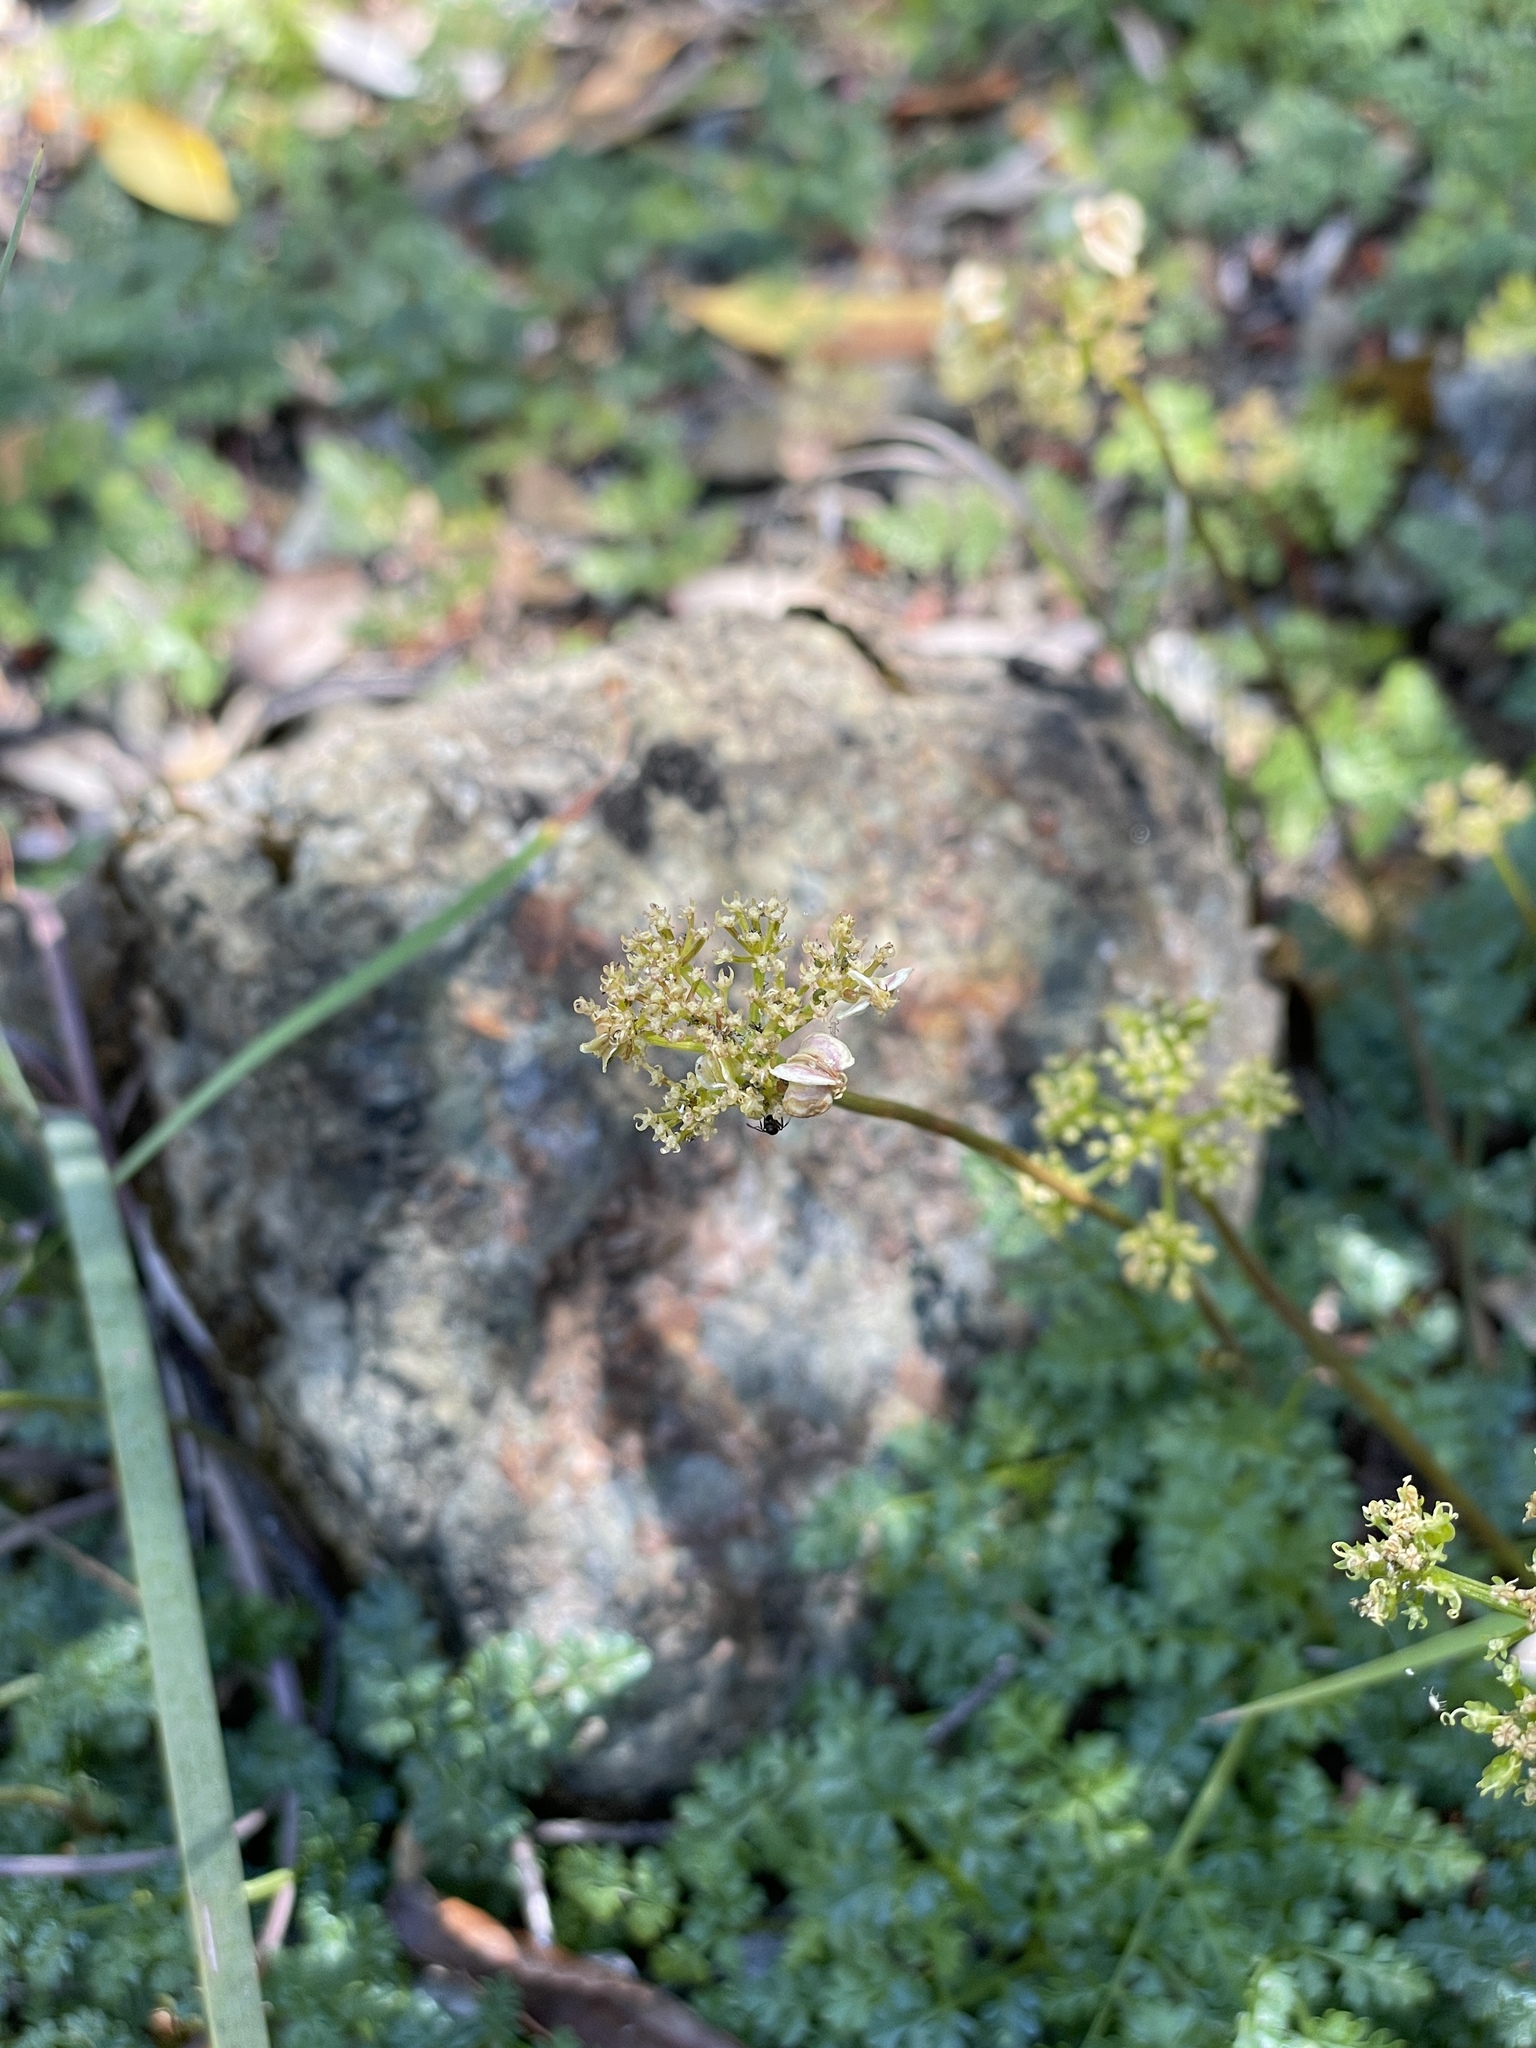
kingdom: Plantae
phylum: Tracheophyta
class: Magnoliopsida
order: Apiales
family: Apiaceae
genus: Pteryxia
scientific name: Pteryxia terebinthina
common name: Turpentine wavewing
